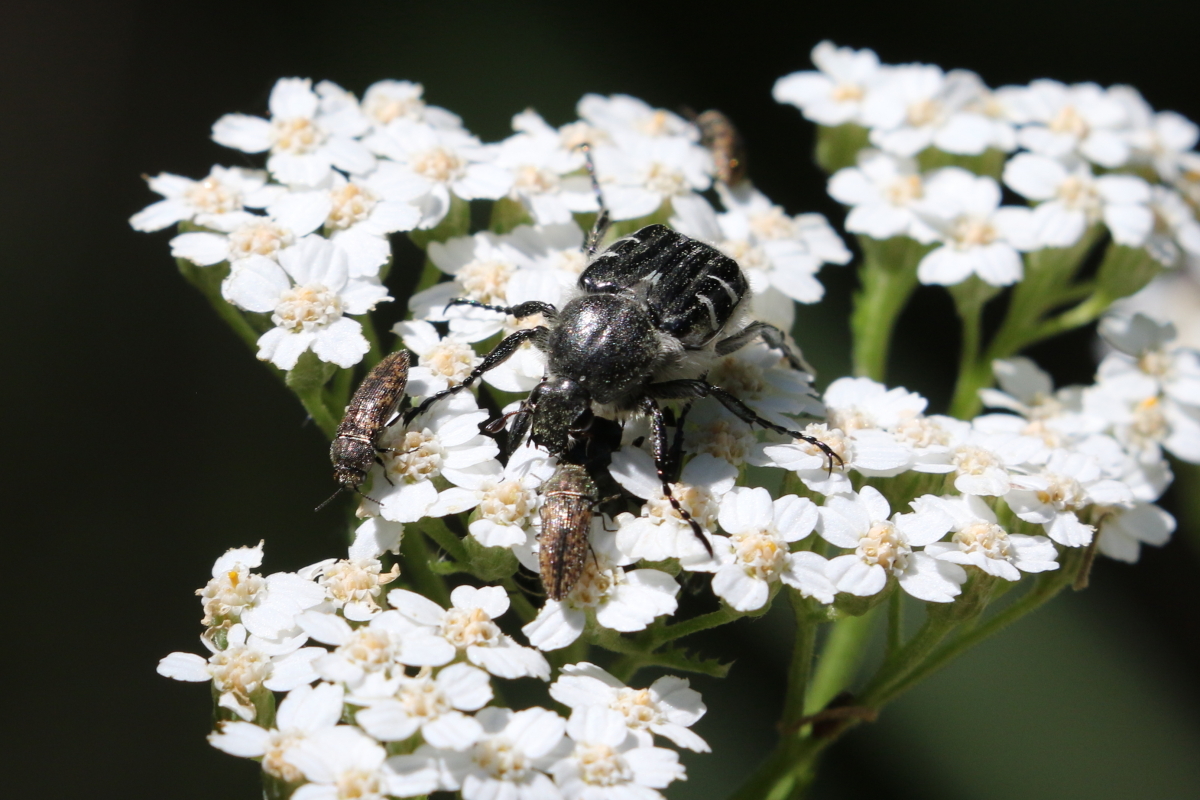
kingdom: Animalia
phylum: Arthropoda
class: Insecta
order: Coleoptera
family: Scarabaeidae
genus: Trichiotinus
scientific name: Trichiotinus texanus
